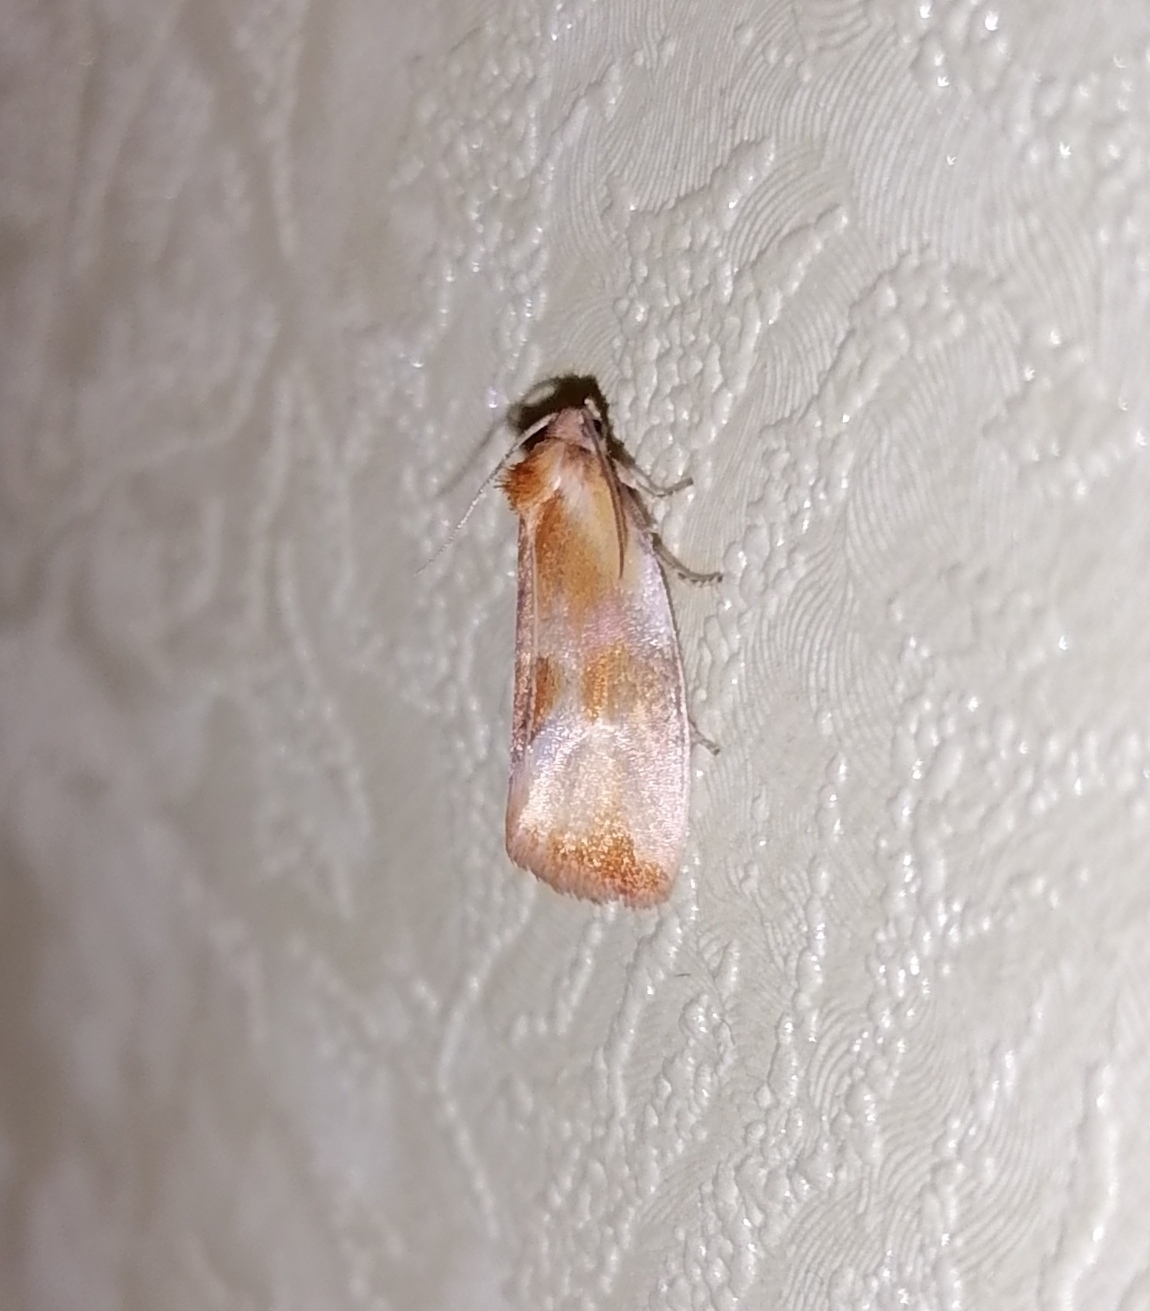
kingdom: Animalia
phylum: Arthropoda
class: Insecta
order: Lepidoptera
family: Tortricidae
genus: Eulia
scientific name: Eulia ministrana
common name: Brassy twist
